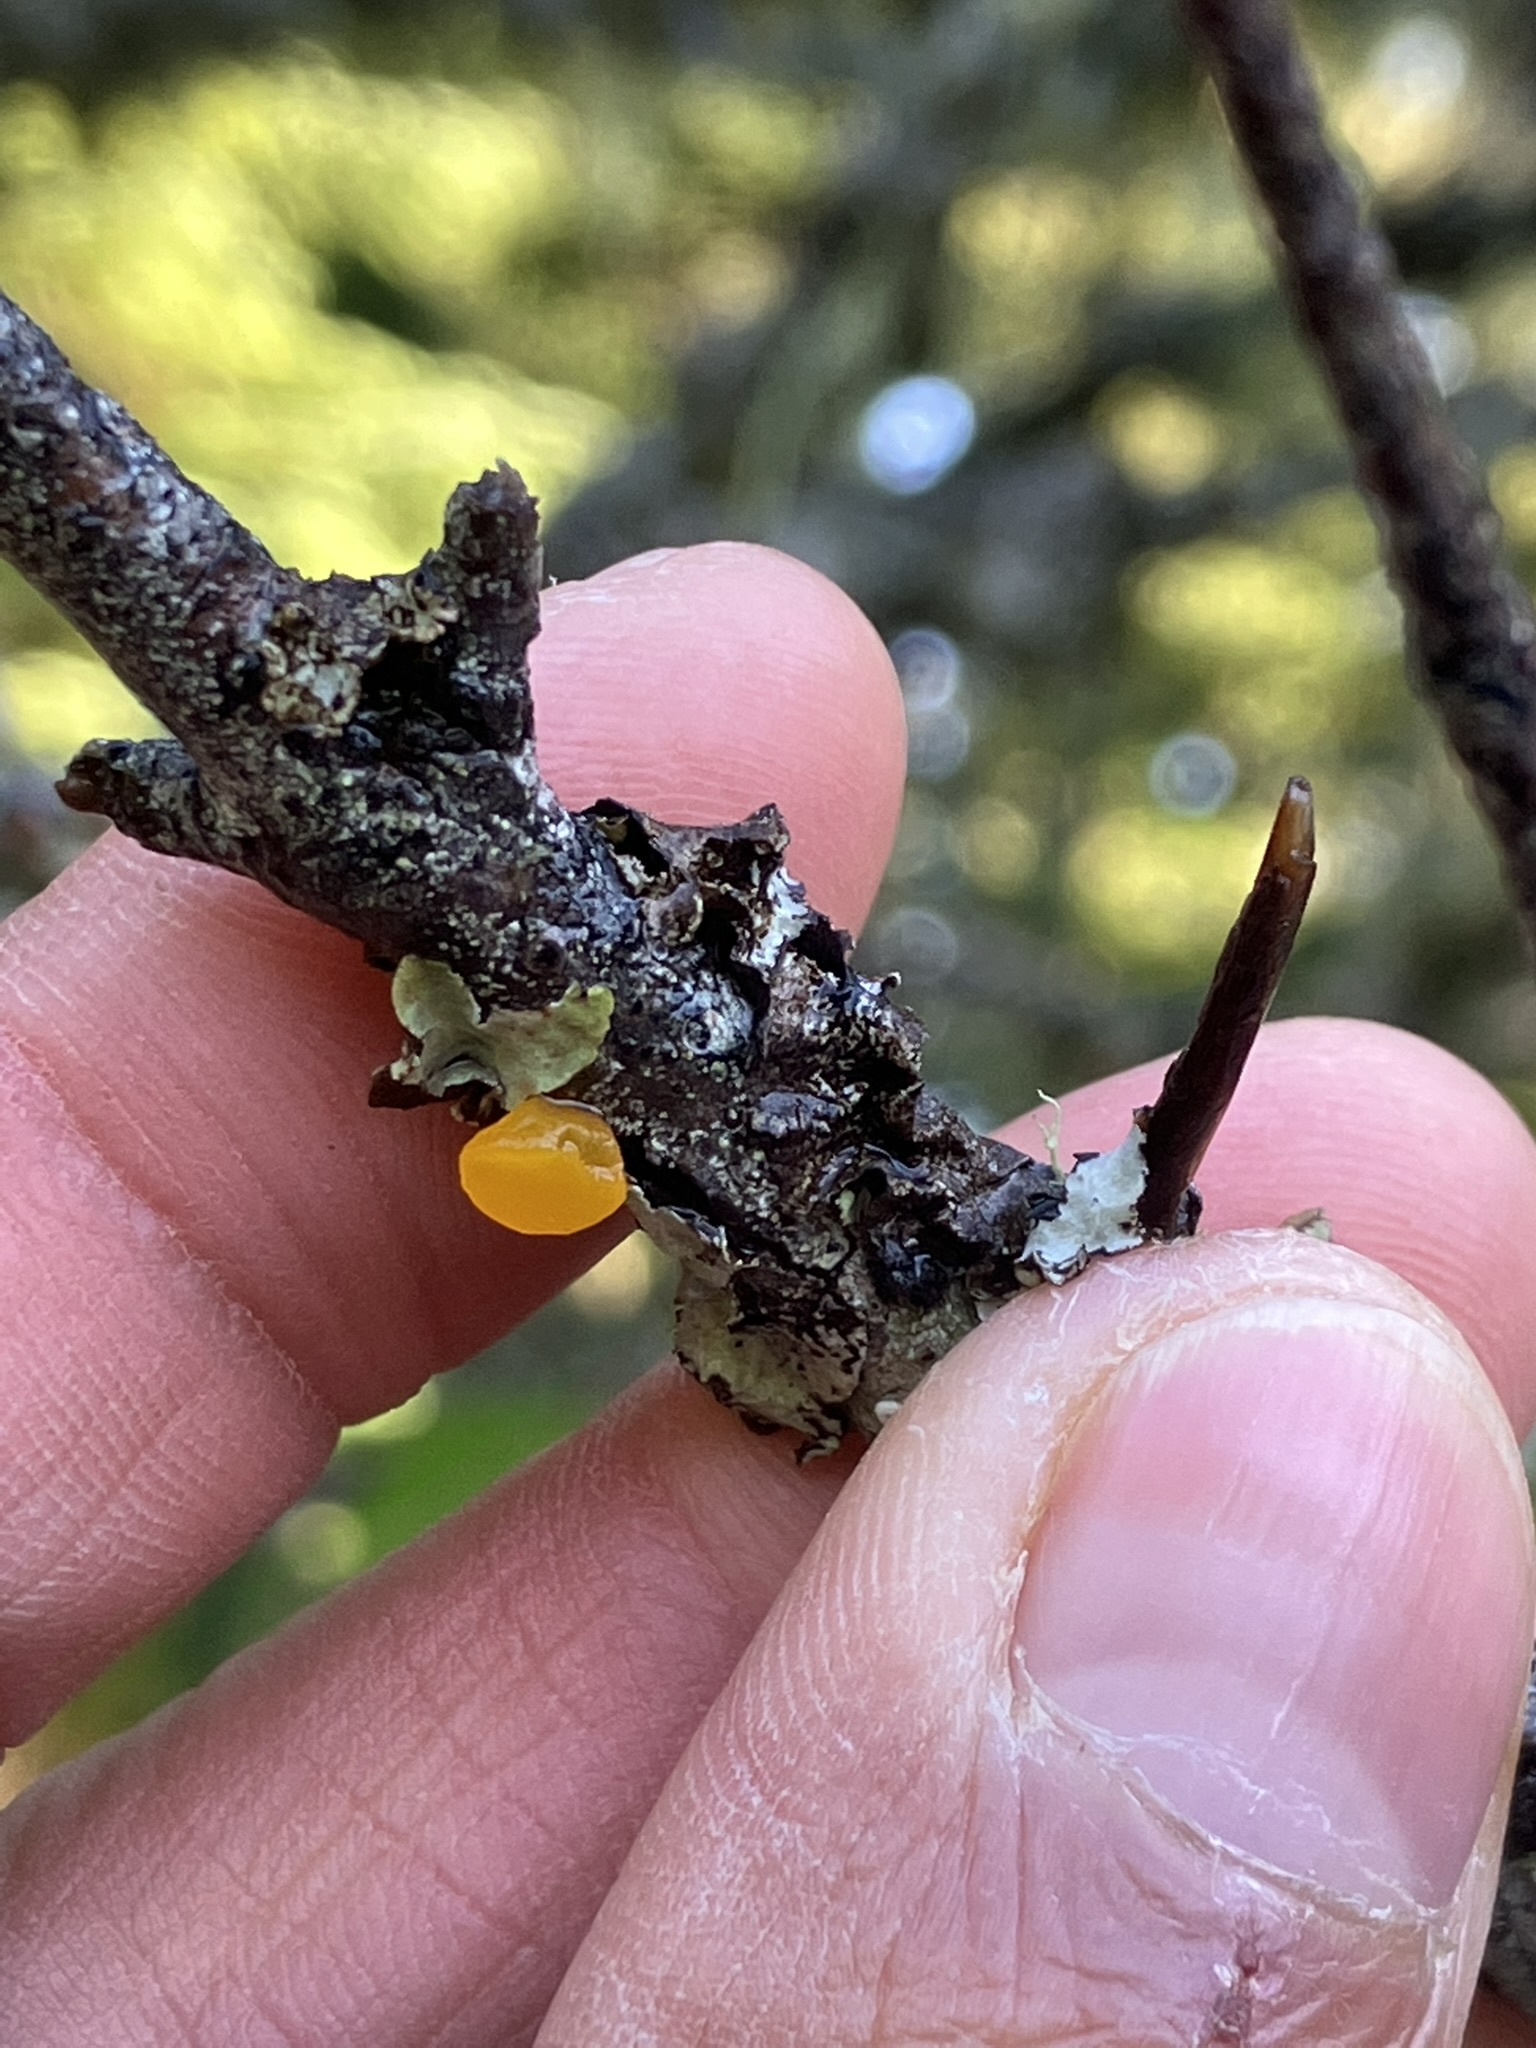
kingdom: Fungi
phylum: Basidiomycota
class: Dacrymycetes
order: Dacrymycetales
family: Dacrymycetaceae
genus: Guepiniopsis
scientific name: Guepiniopsis alpina
